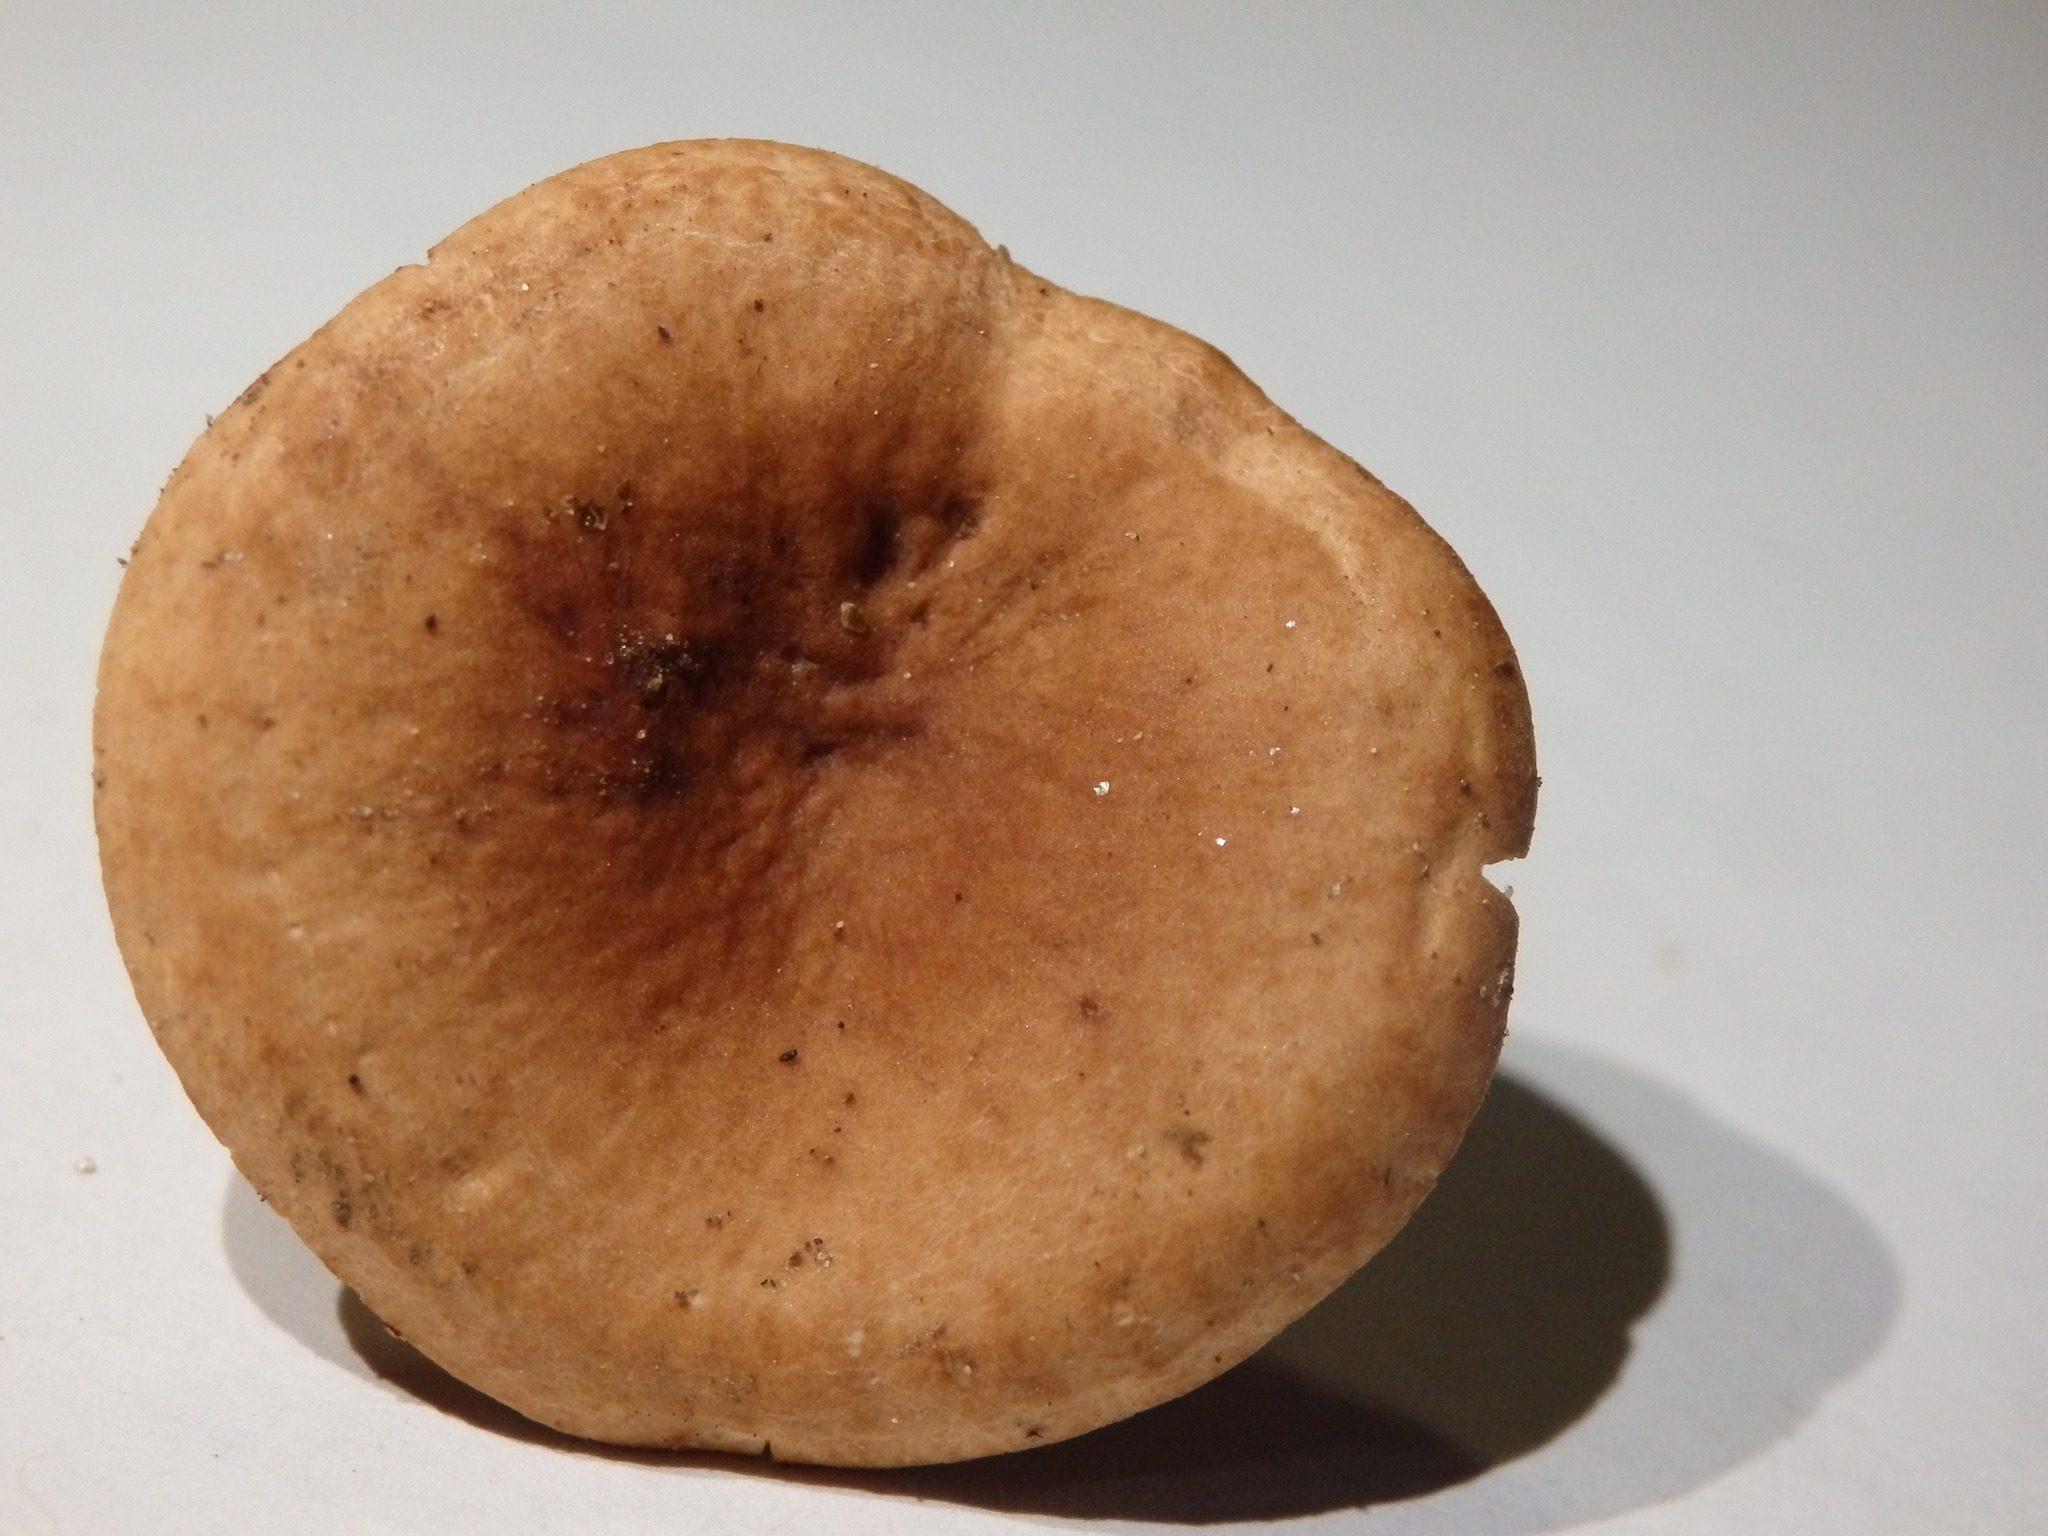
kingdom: Fungi
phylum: Basidiomycota
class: Agaricomycetes
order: Russulales
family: Russulaceae
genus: Lactarius
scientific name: Lactarius camphoratus
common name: Curry milkcap
